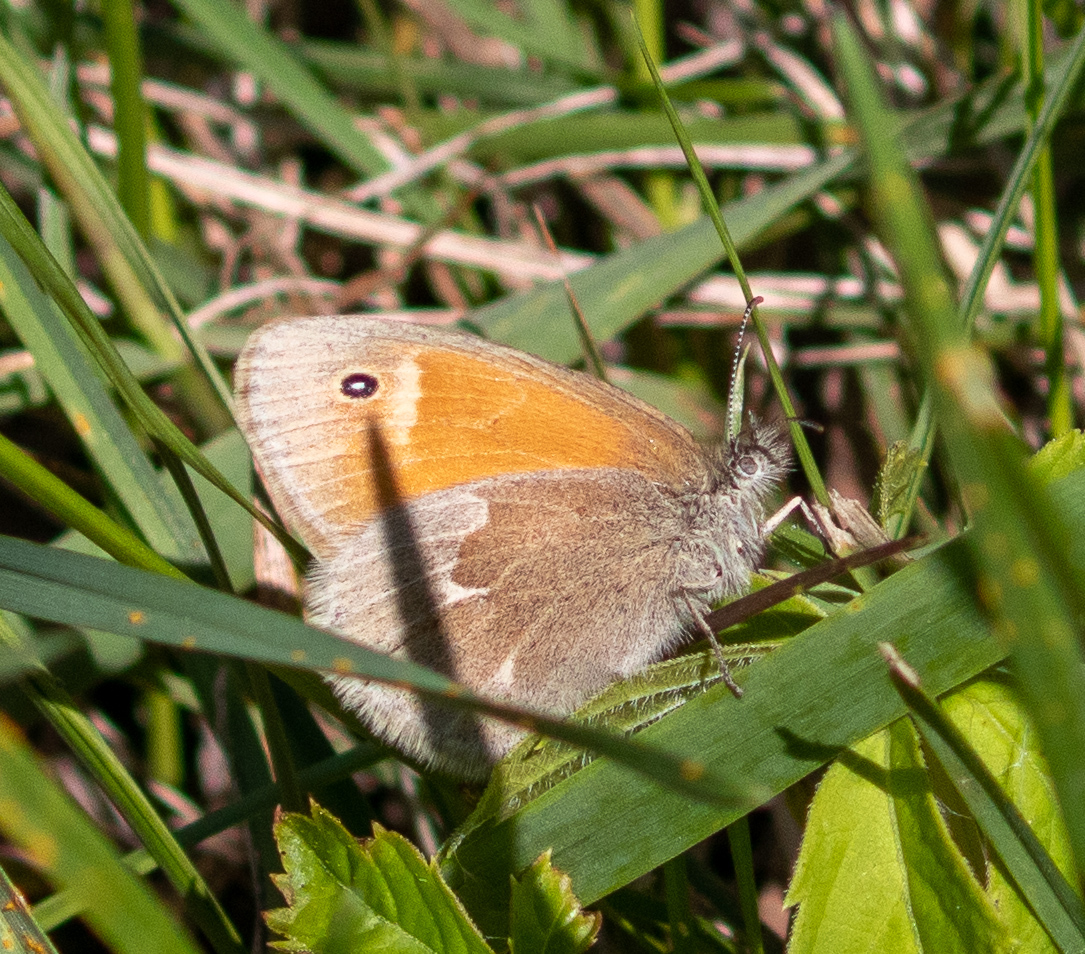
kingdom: Animalia
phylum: Arthropoda
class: Insecta
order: Lepidoptera
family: Nymphalidae
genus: Coenonympha
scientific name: Coenonympha california
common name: Common ringlet
